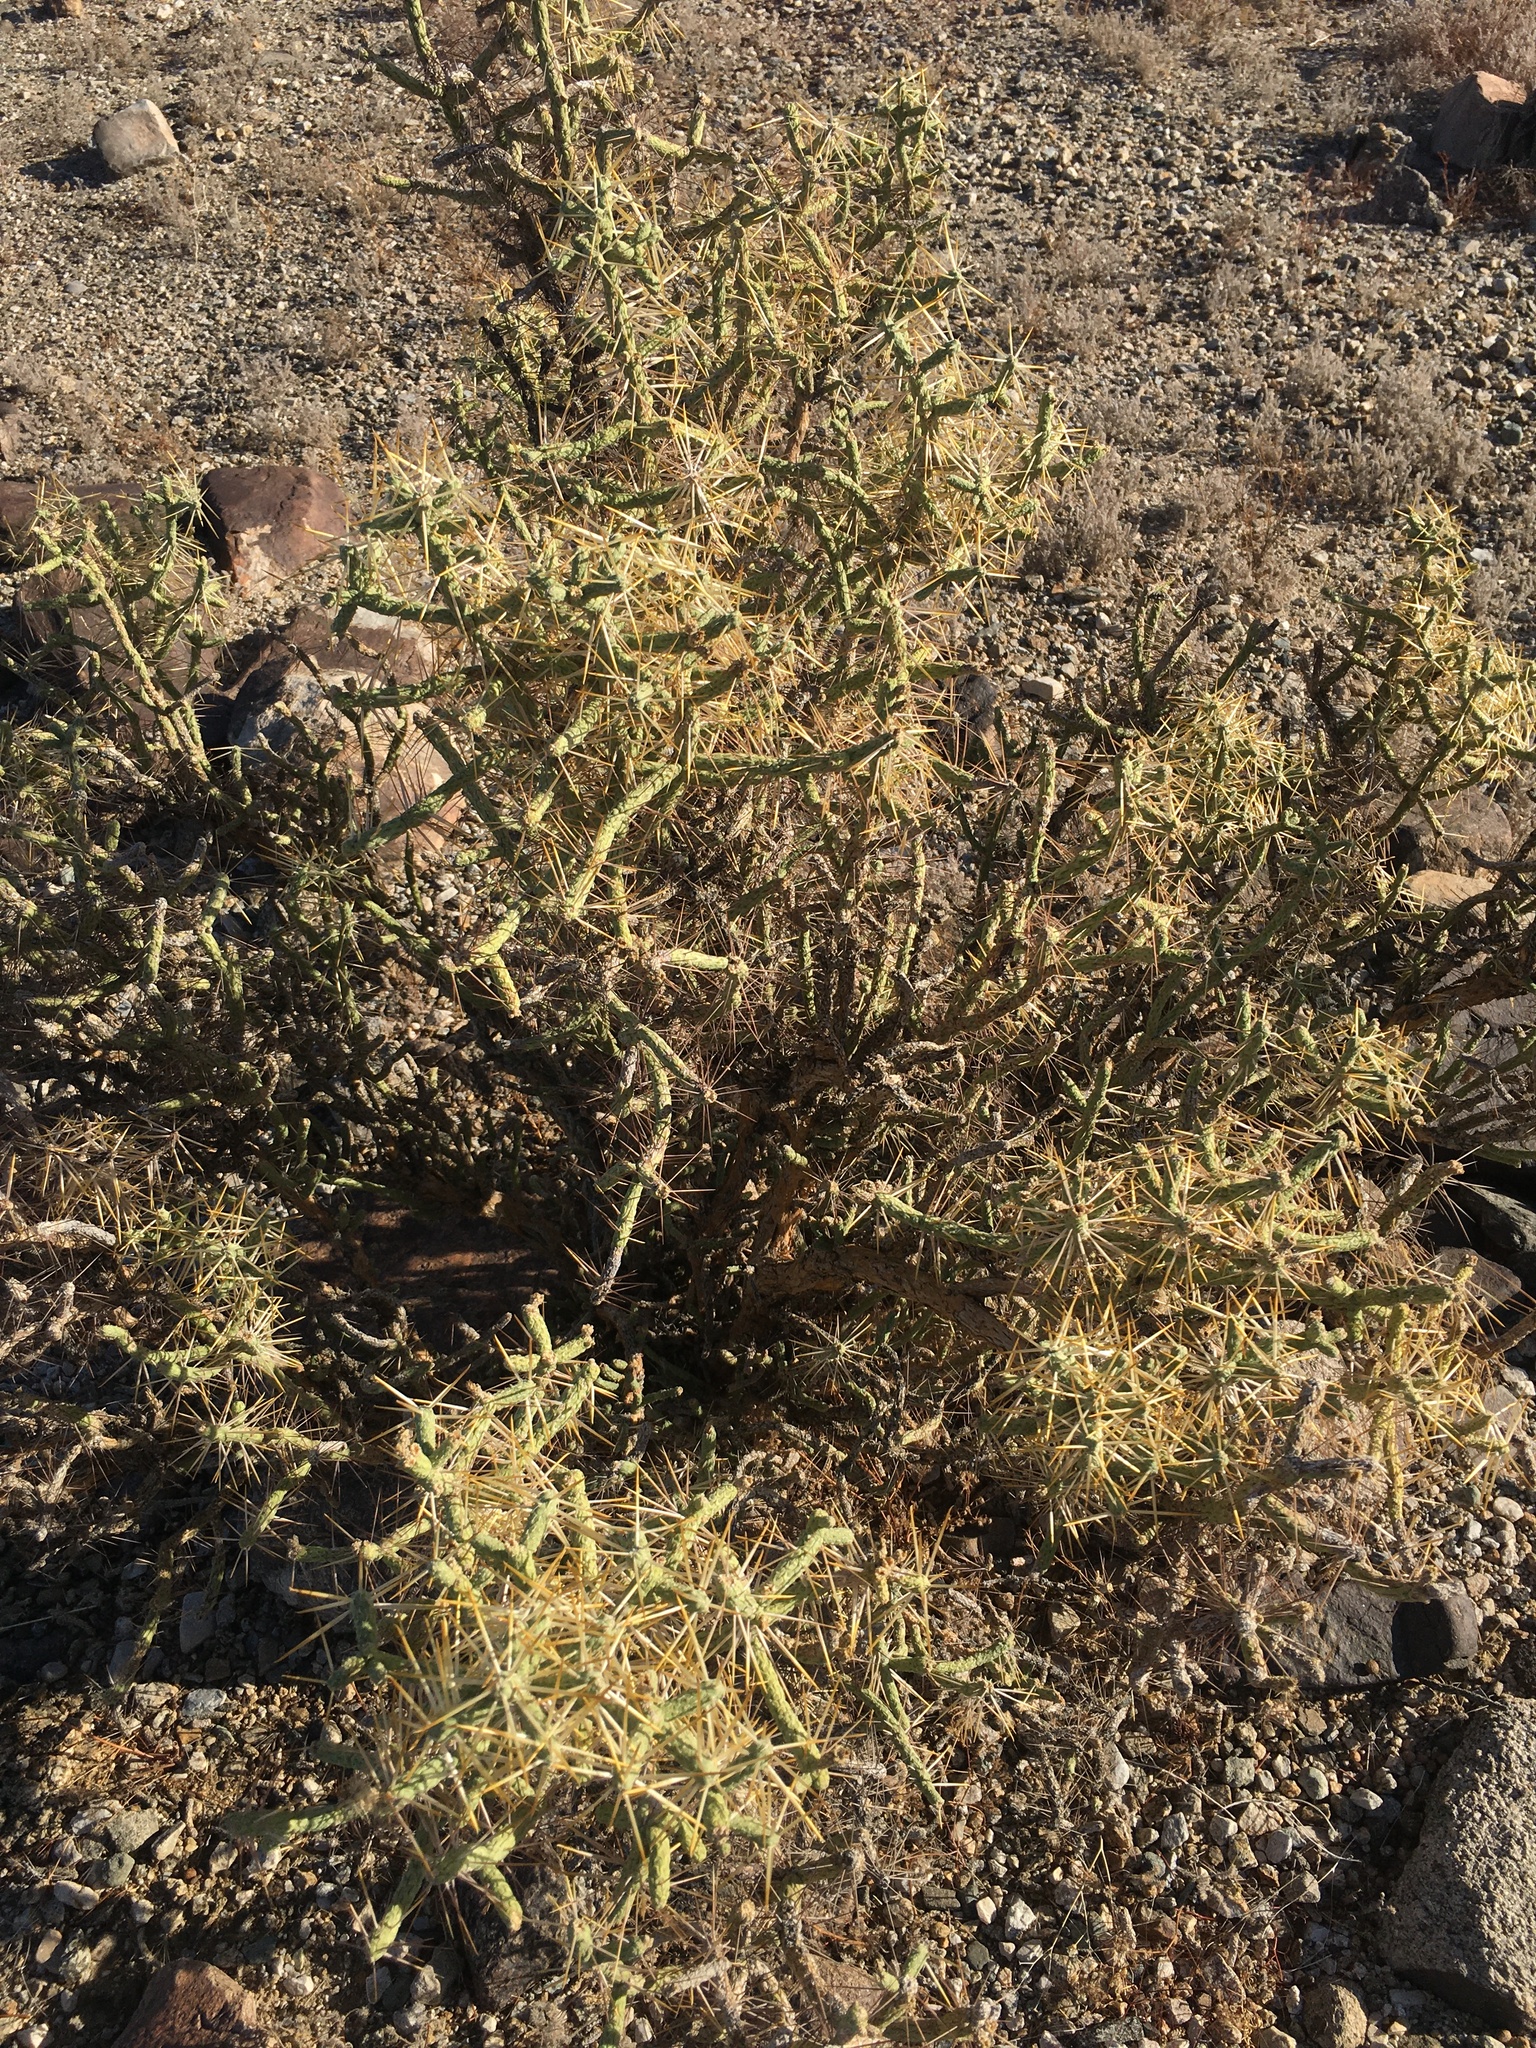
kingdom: Plantae
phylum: Tracheophyta
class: Magnoliopsida
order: Caryophyllales
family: Cactaceae
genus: Cylindropuntia
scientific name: Cylindropuntia ramosissima
